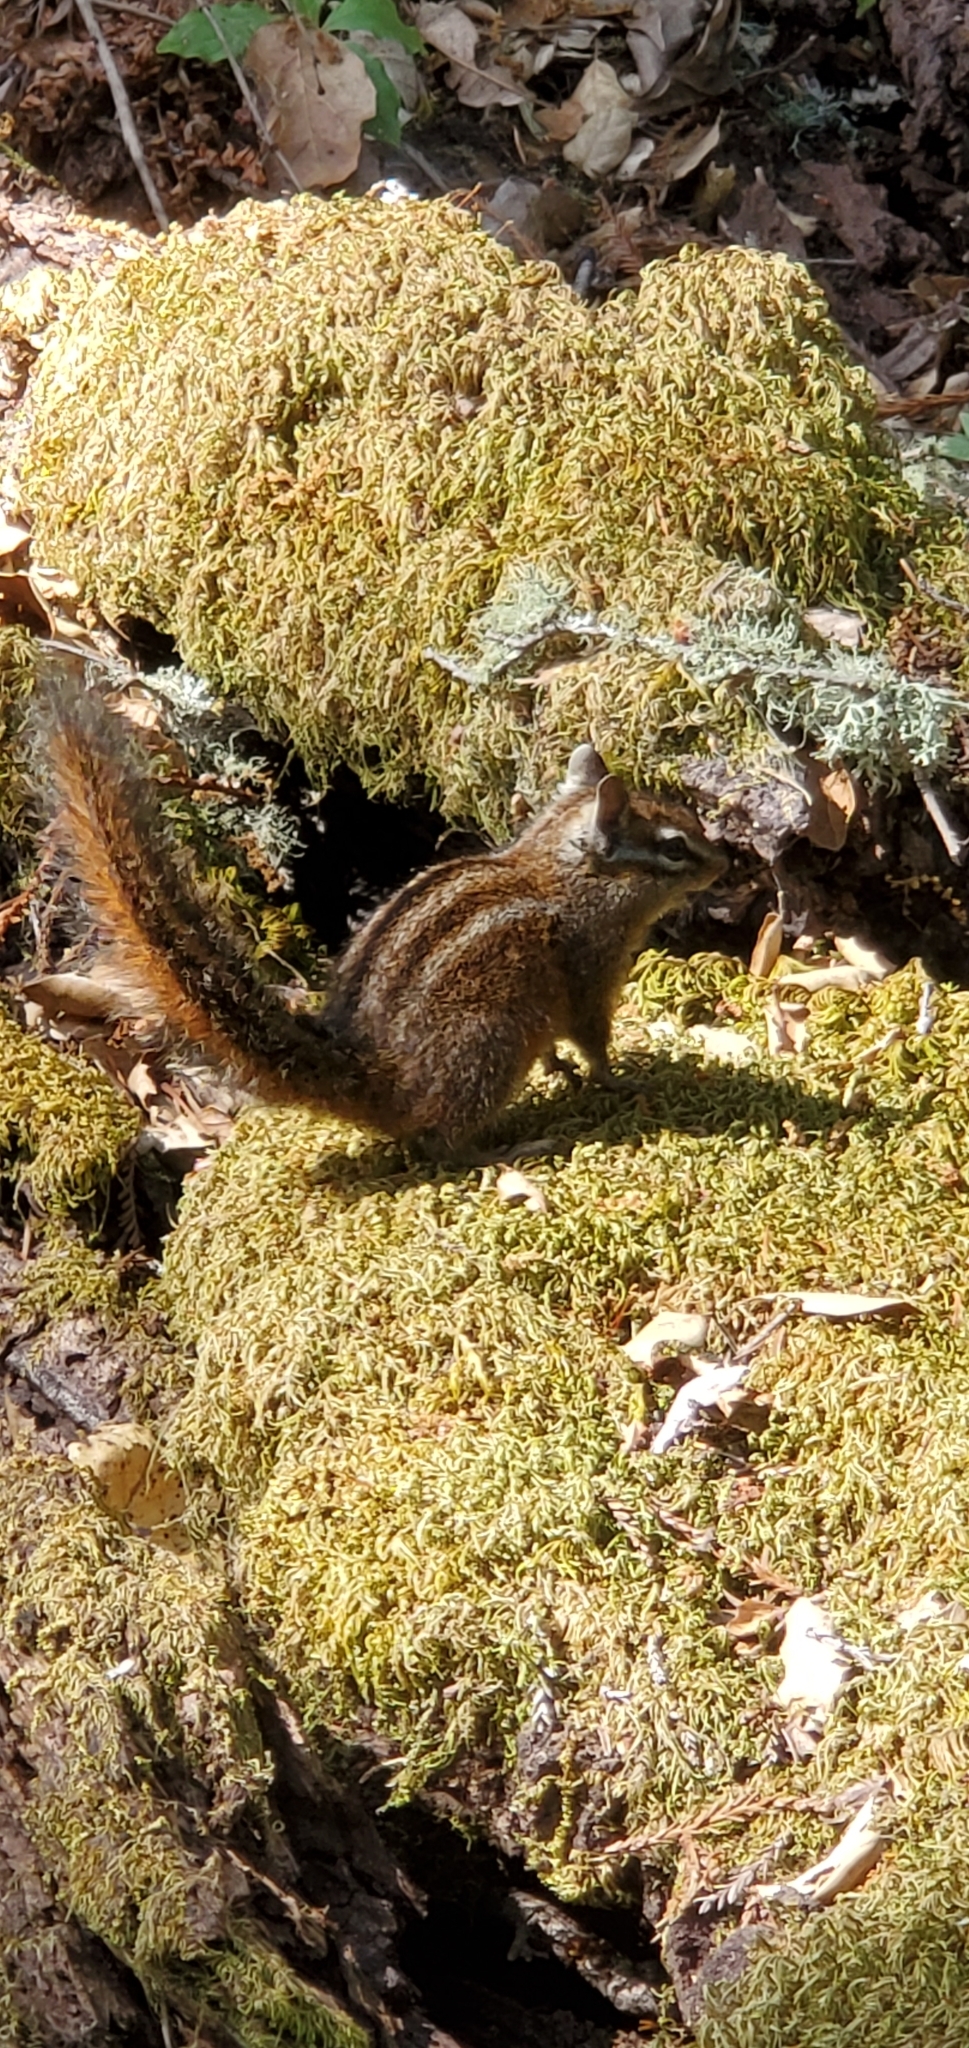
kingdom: Animalia
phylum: Chordata
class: Mammalia
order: Rodentia
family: Sciuridae
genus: Tamias
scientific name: Tamias merriami
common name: Merriam's chipmunk
